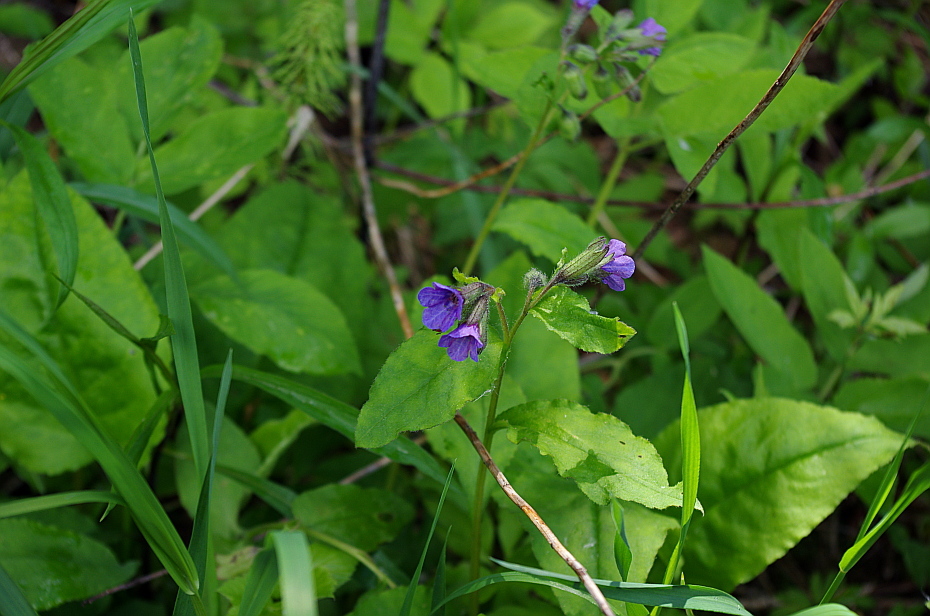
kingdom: Plantae
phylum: Tracheophyta
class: Magnoliopsida
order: Boraginales
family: Boraginaceae
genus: Pulmonaria
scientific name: Pulmonaria obscura
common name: Suffolk lungwort
